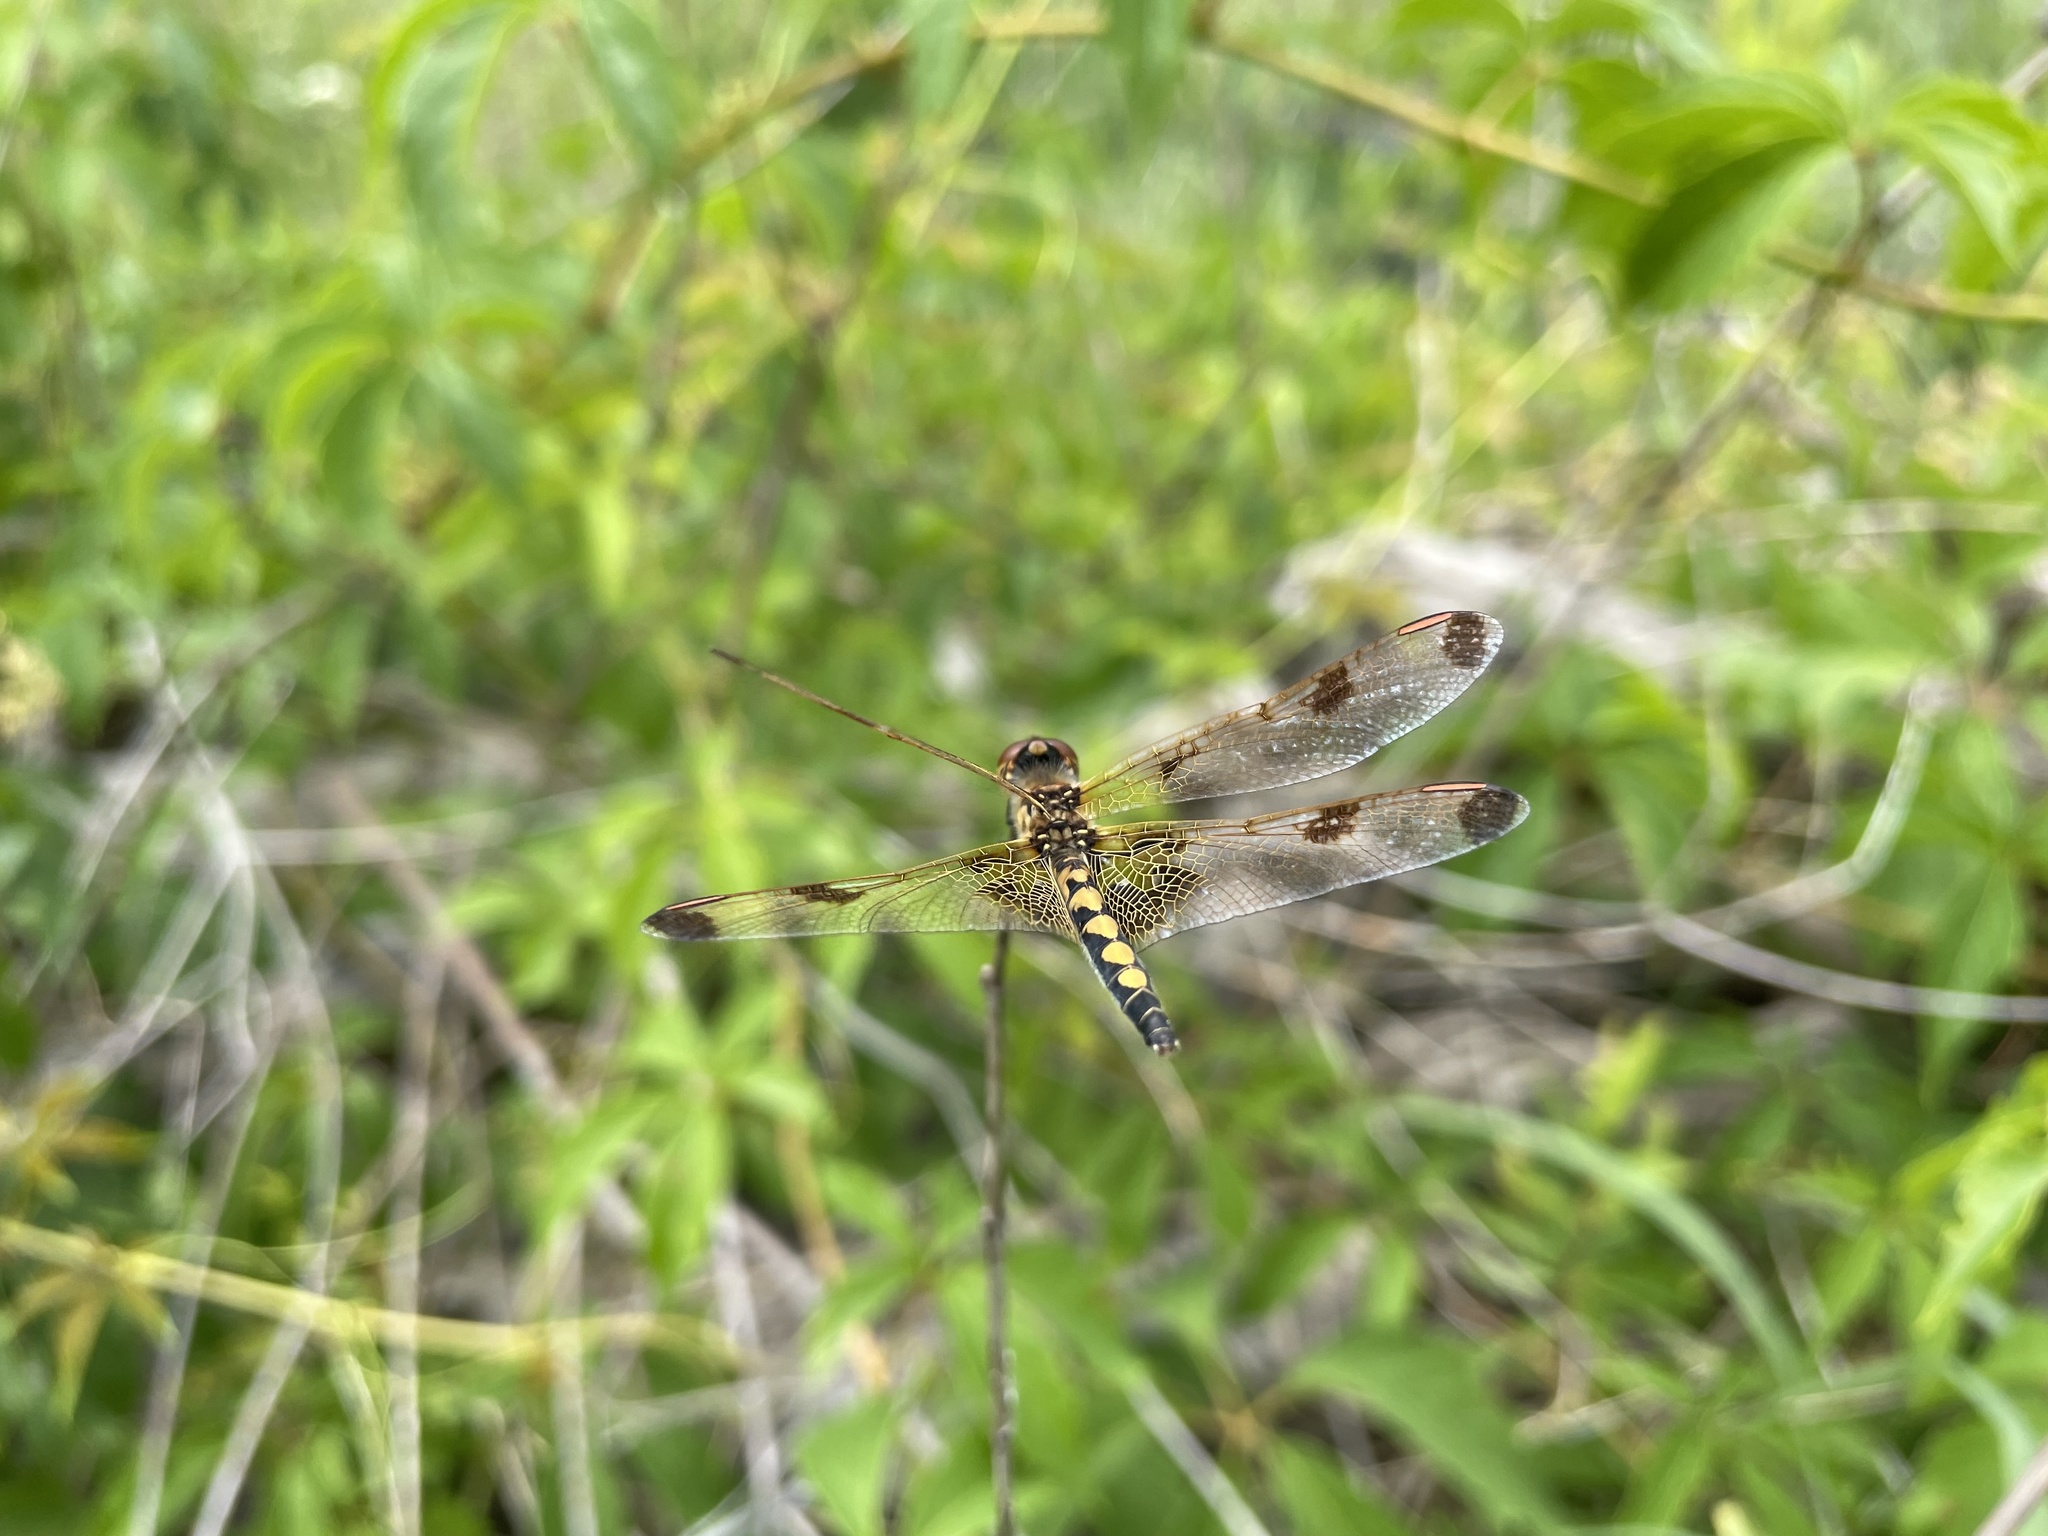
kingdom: Animalia
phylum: Arthropoda
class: Insecta
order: Odonata
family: Libellulidae
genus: Celithemis
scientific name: Celithemis elisa
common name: Calico pennant
